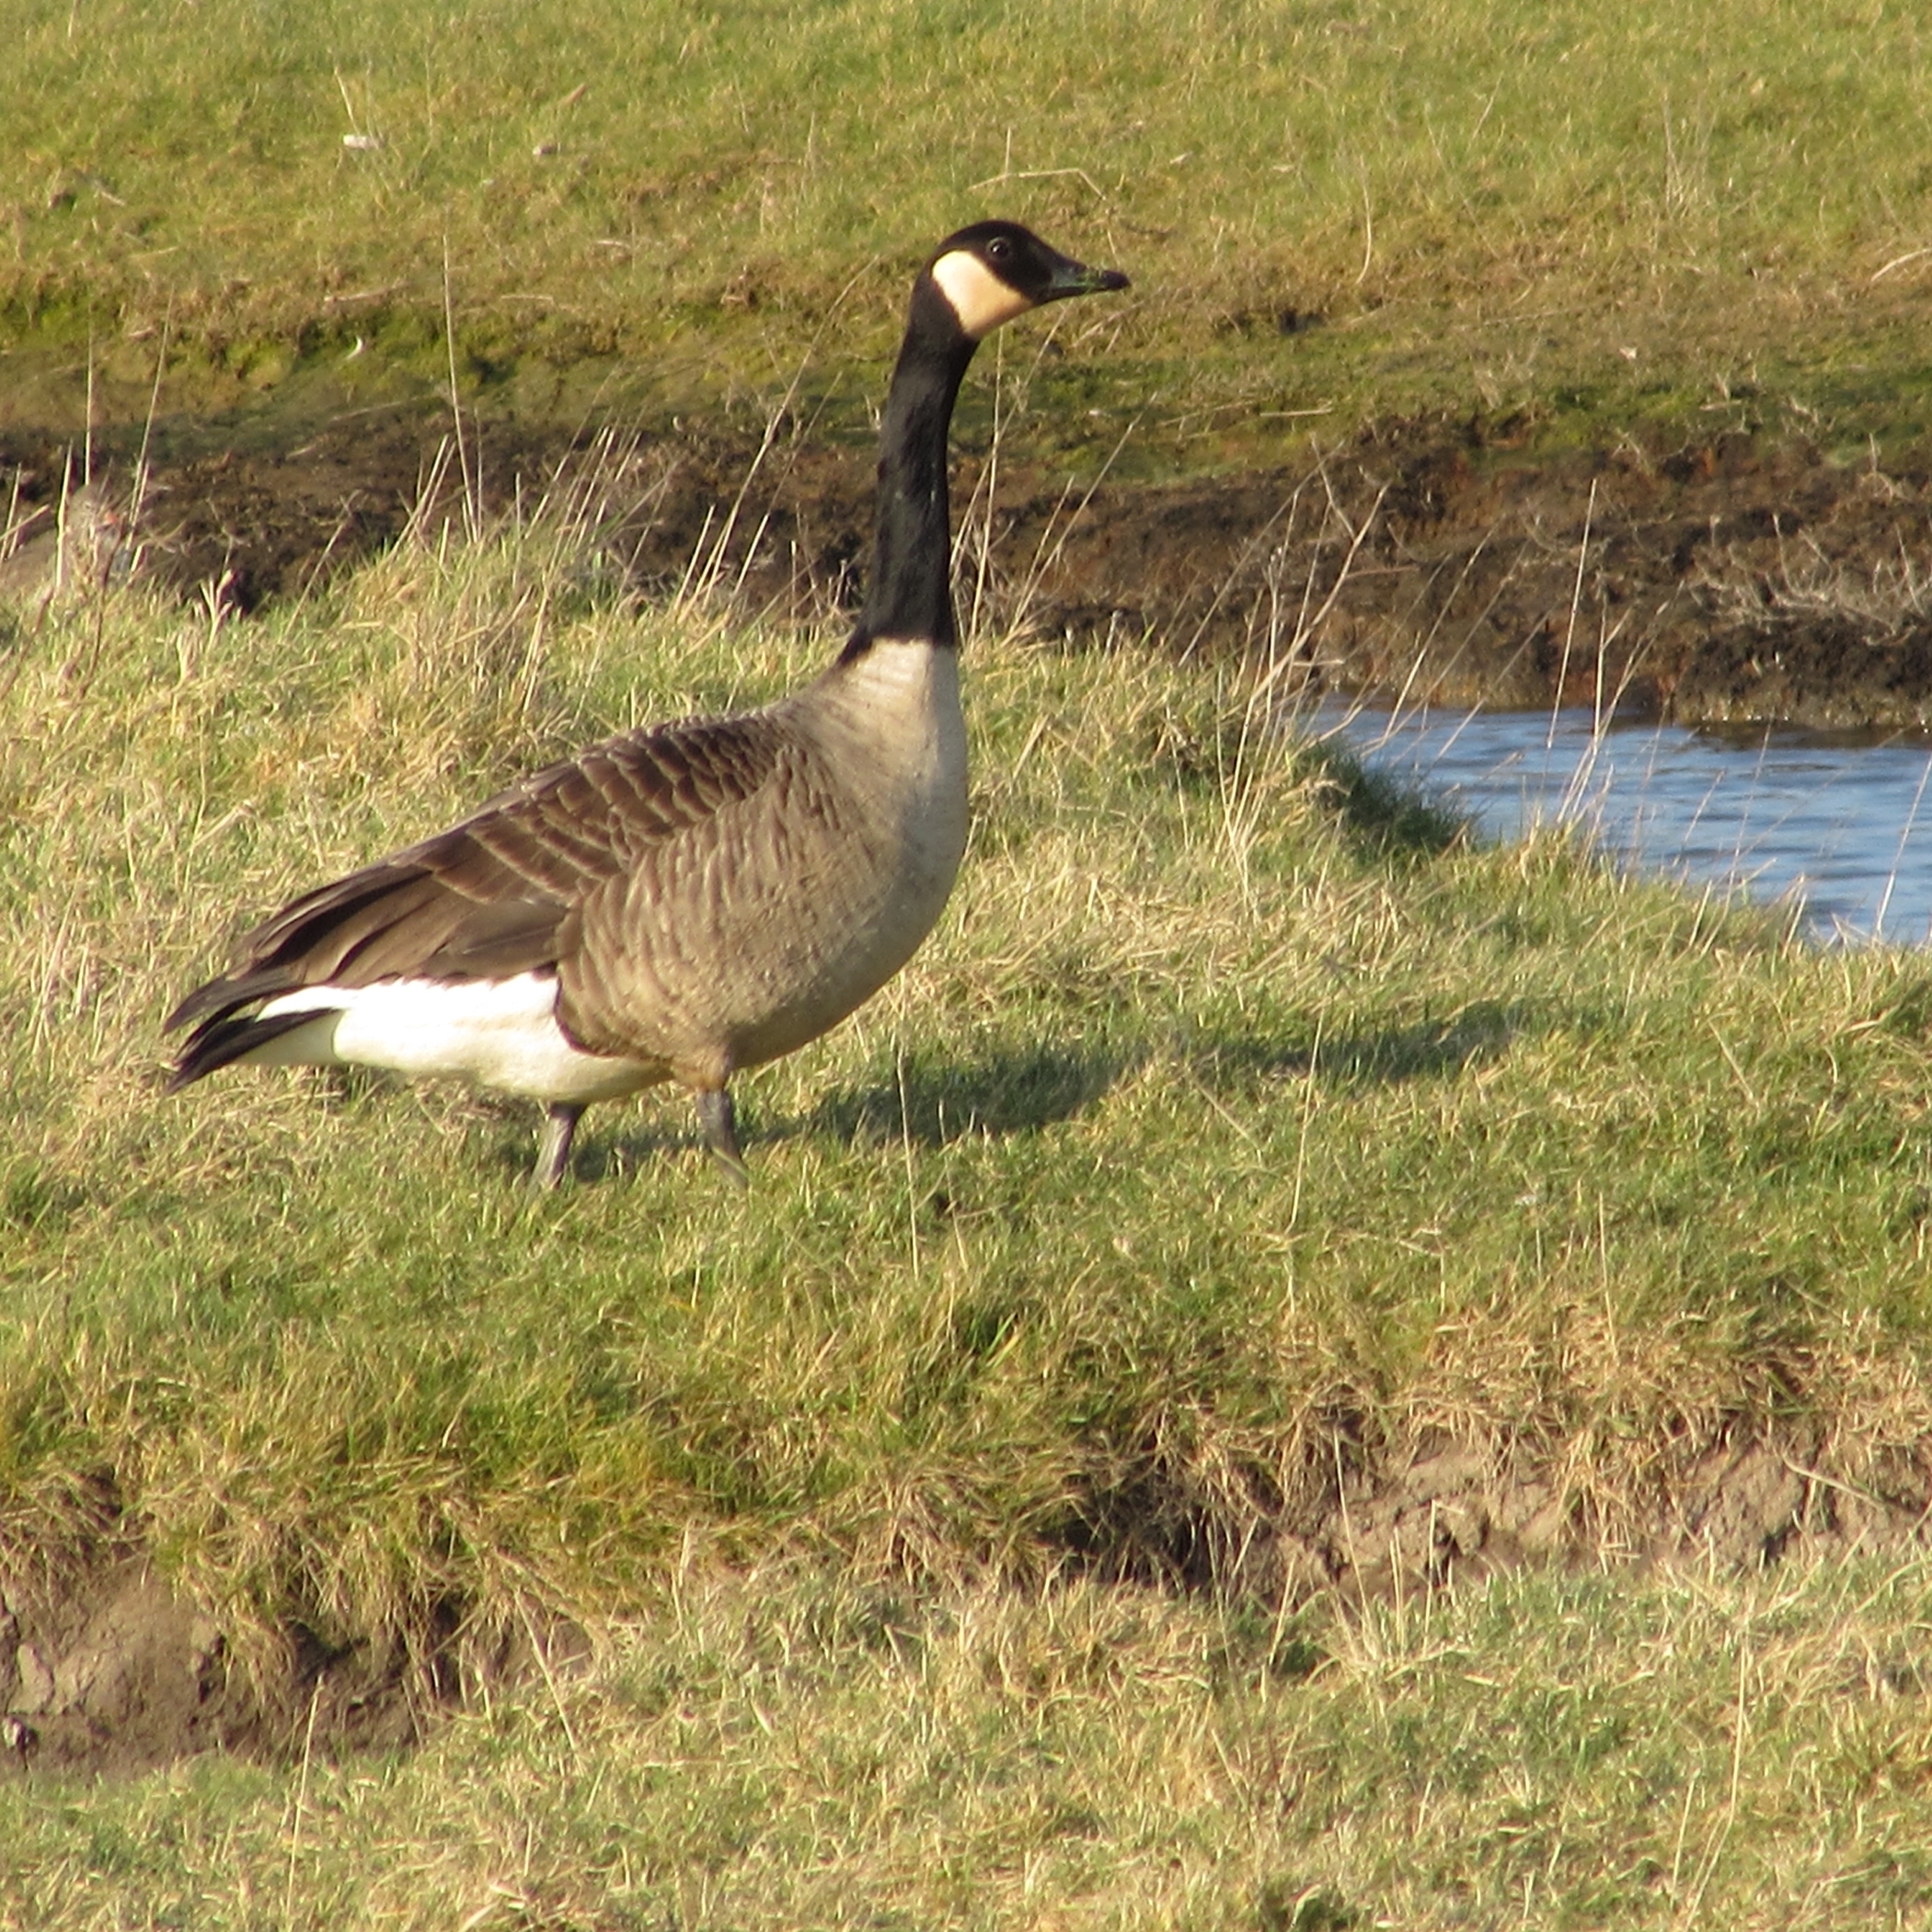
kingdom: Animalia
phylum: Chordata
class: Aves
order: Anseriformes
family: Anatidae
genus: Branta
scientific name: Branta canadensis
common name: Canada goose
